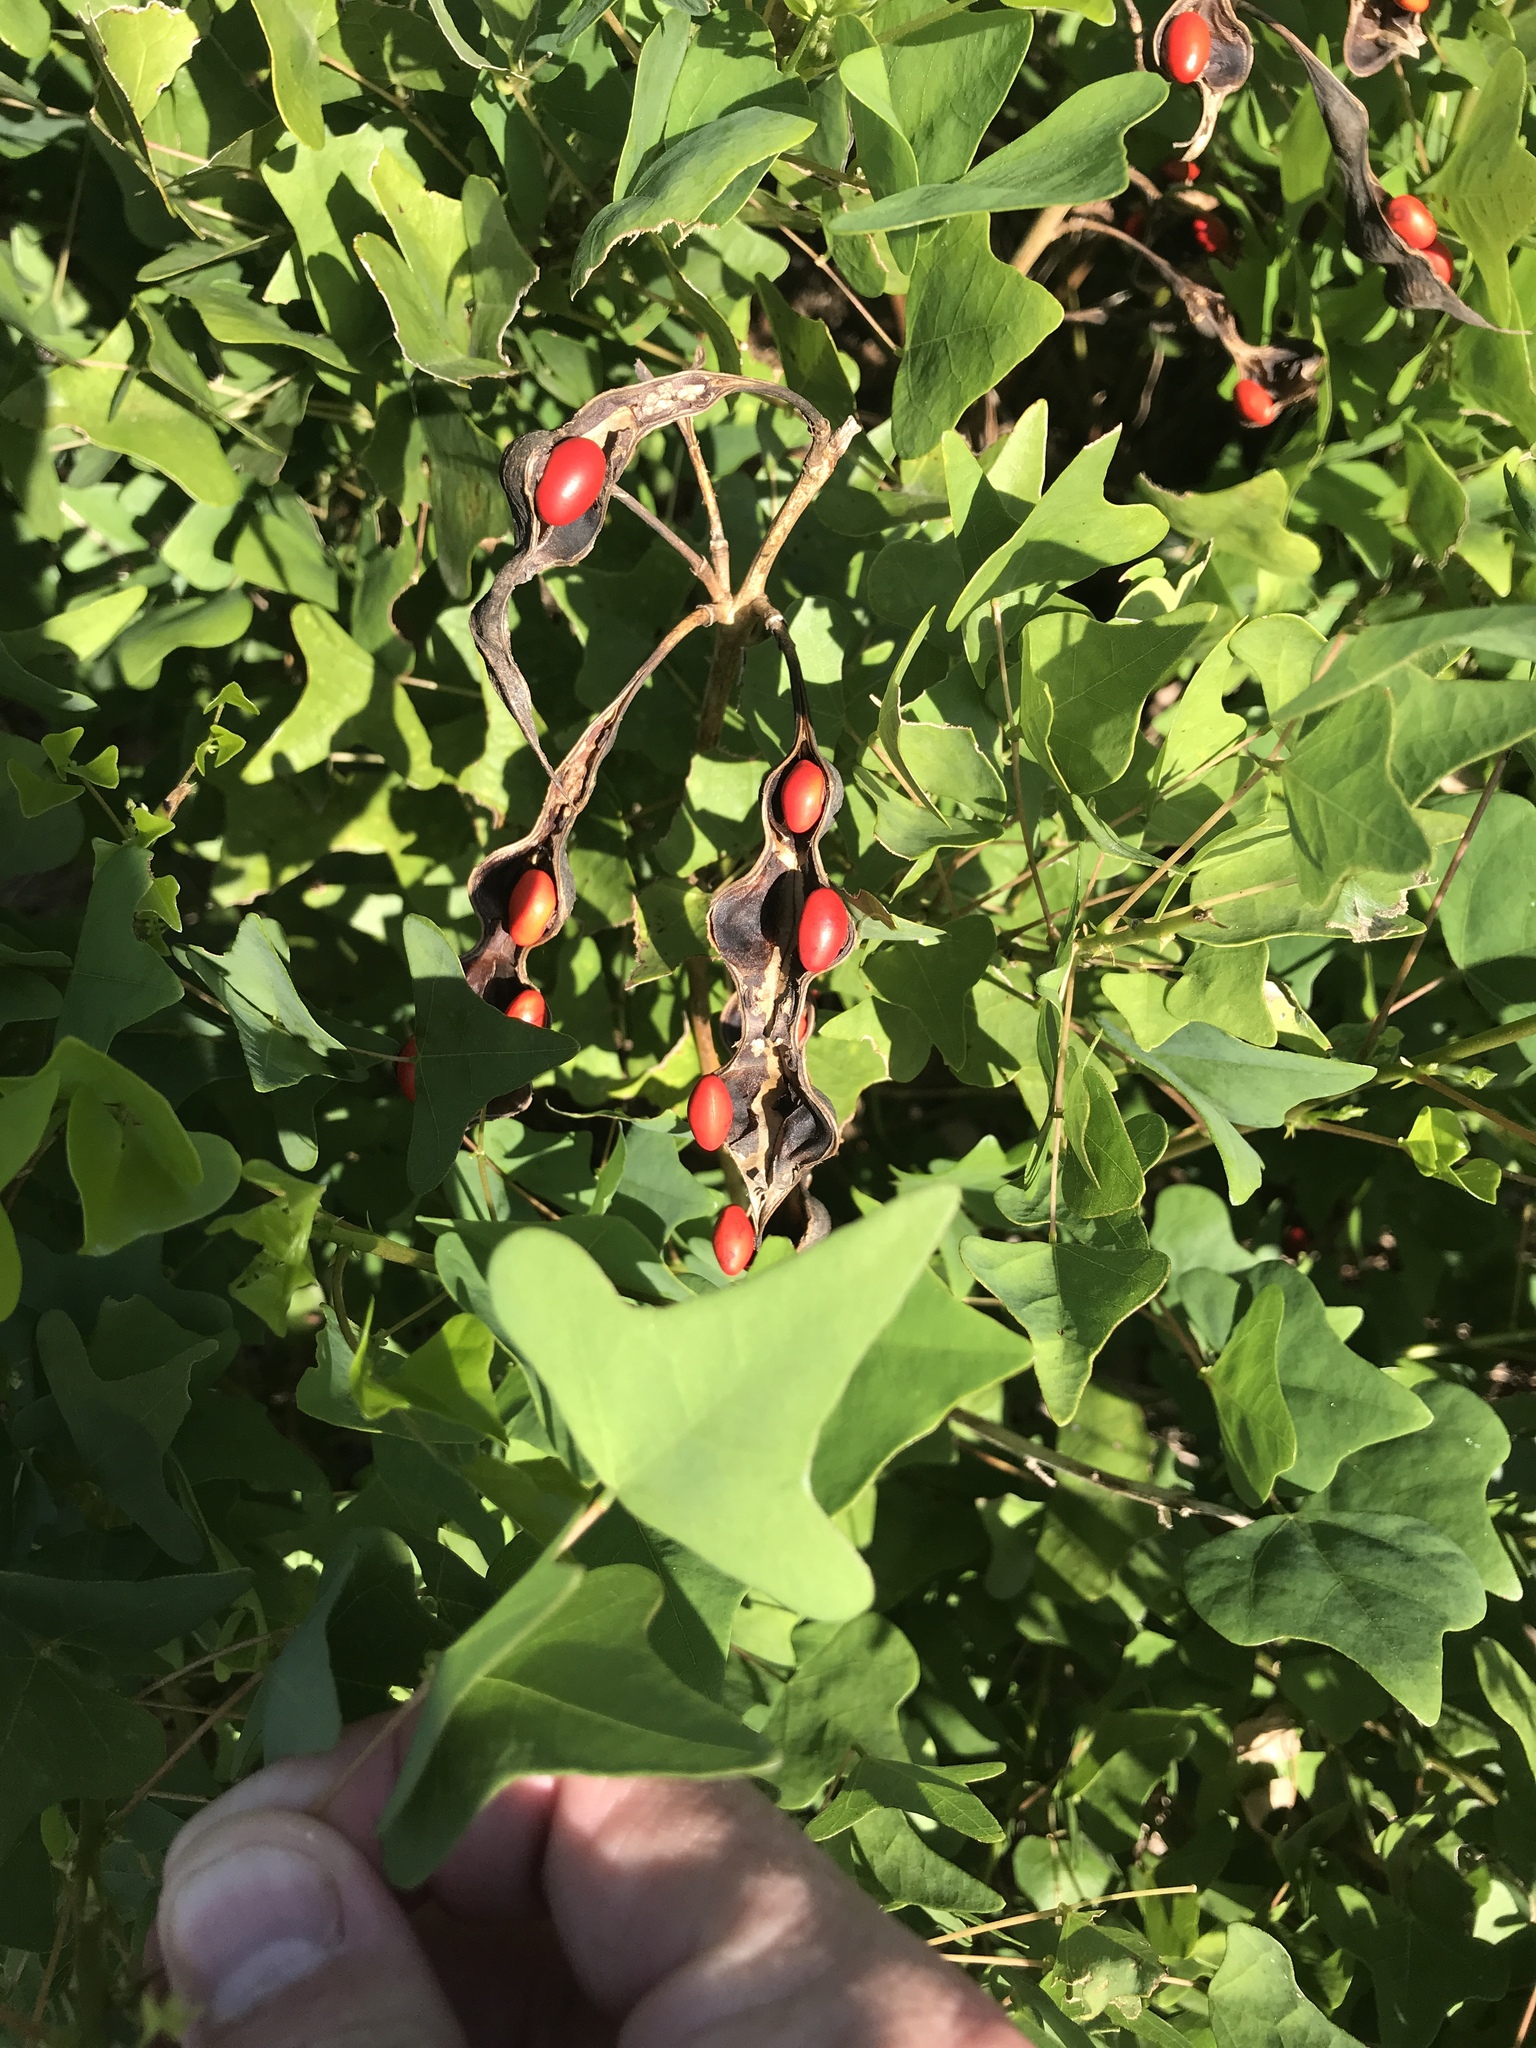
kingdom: Plantae
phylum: Tracheophyta
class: Magnoliopsida
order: Fabales
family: Fabaceae
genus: Erythrina
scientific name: Erythrina herbacea
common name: Coral-bean
